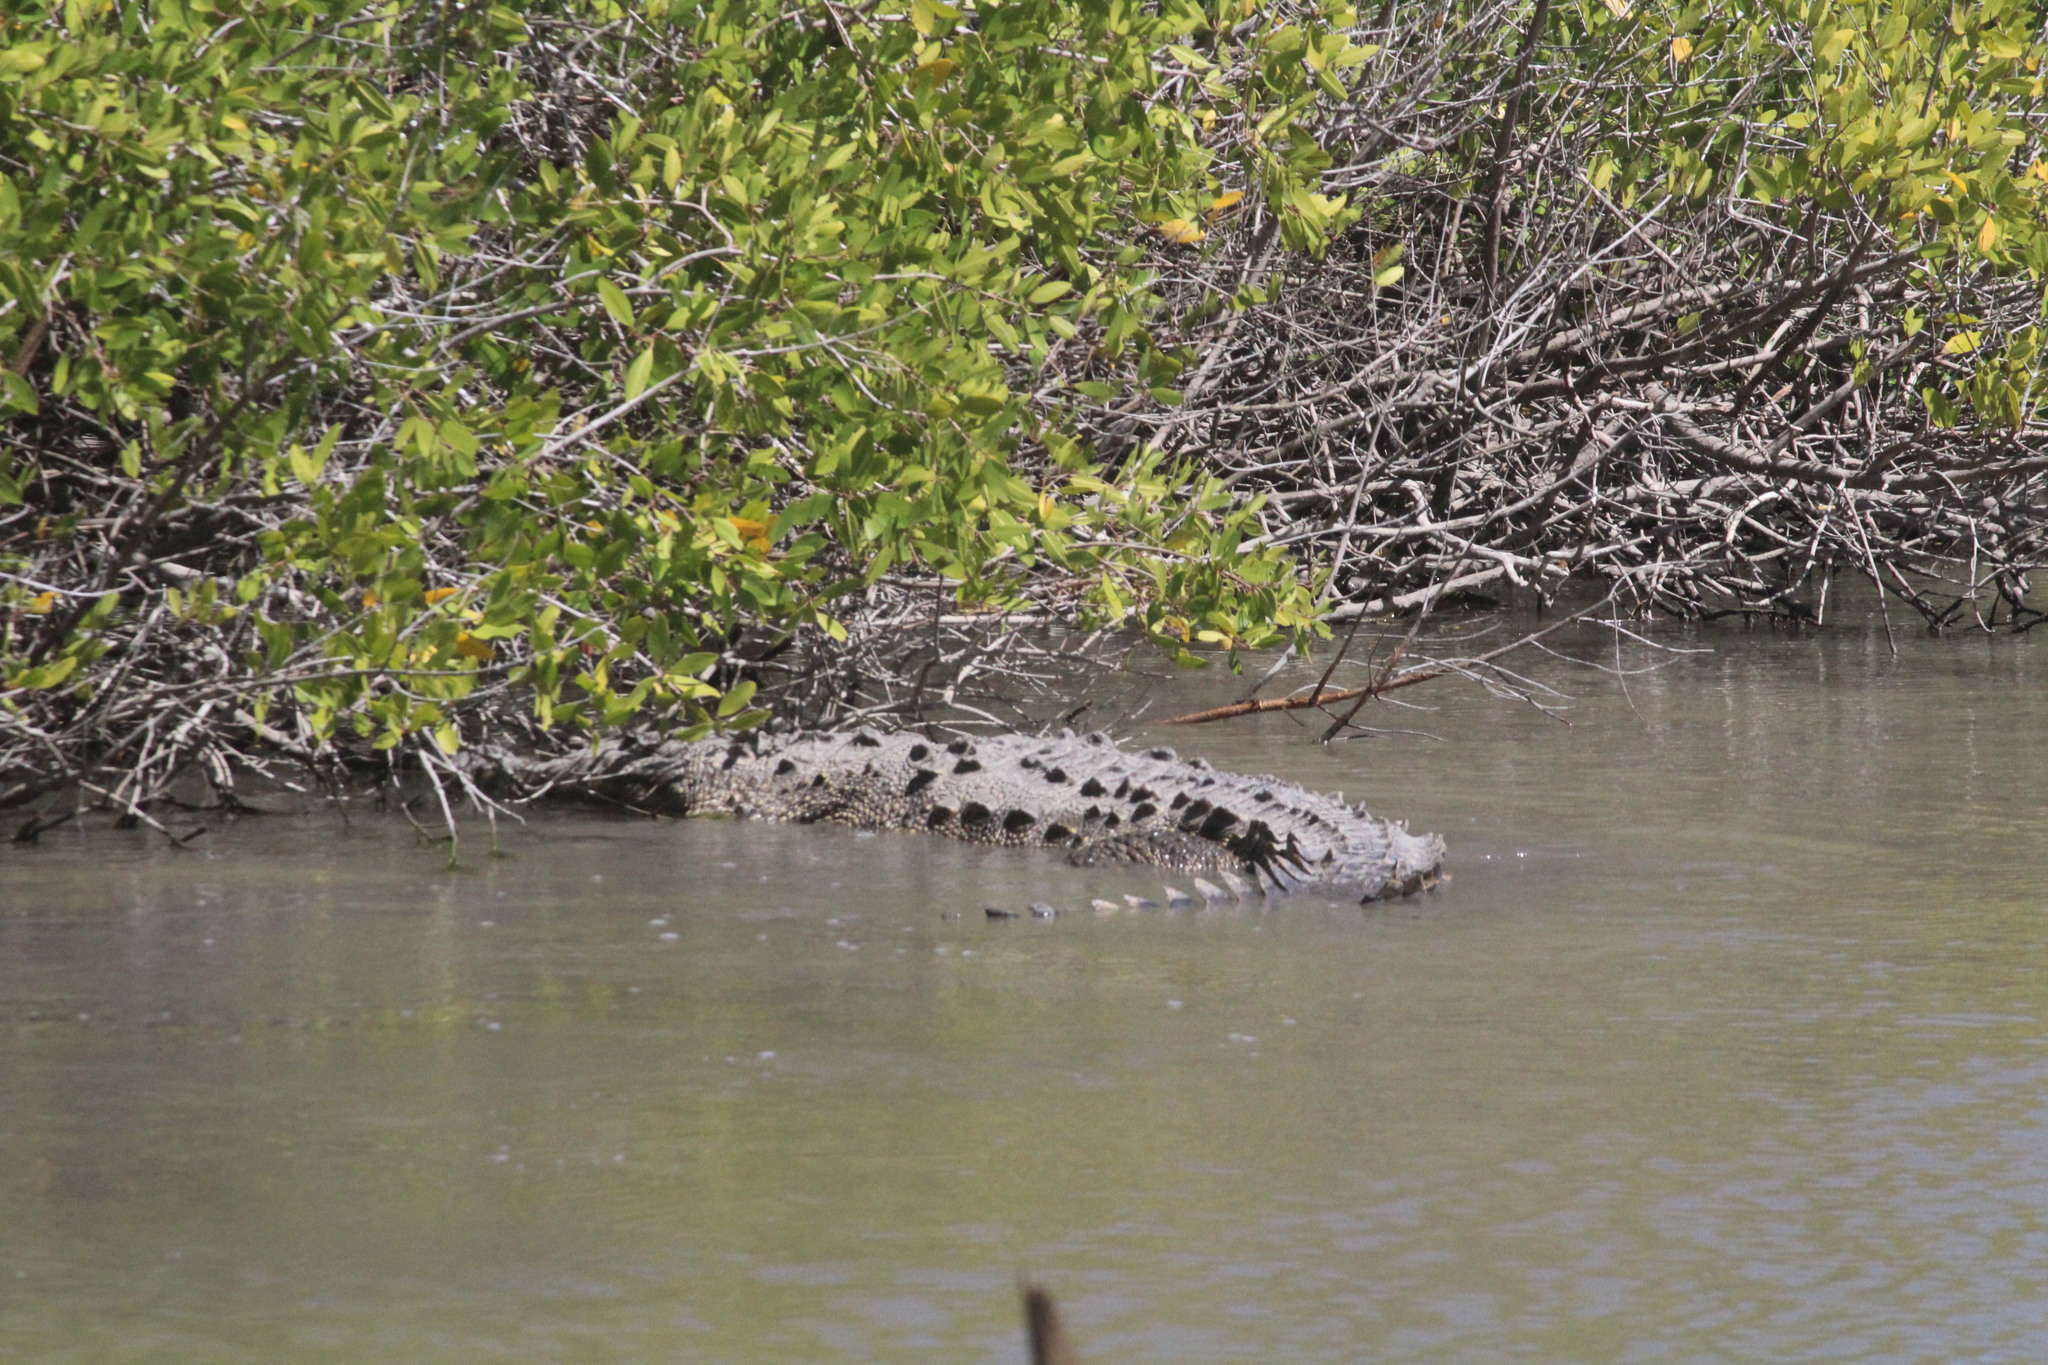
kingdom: Animalia
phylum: Chordata
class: Crocodylia
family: Crocodylidae
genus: Crocodylus
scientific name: Crocodylus acutus
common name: American crocodile
